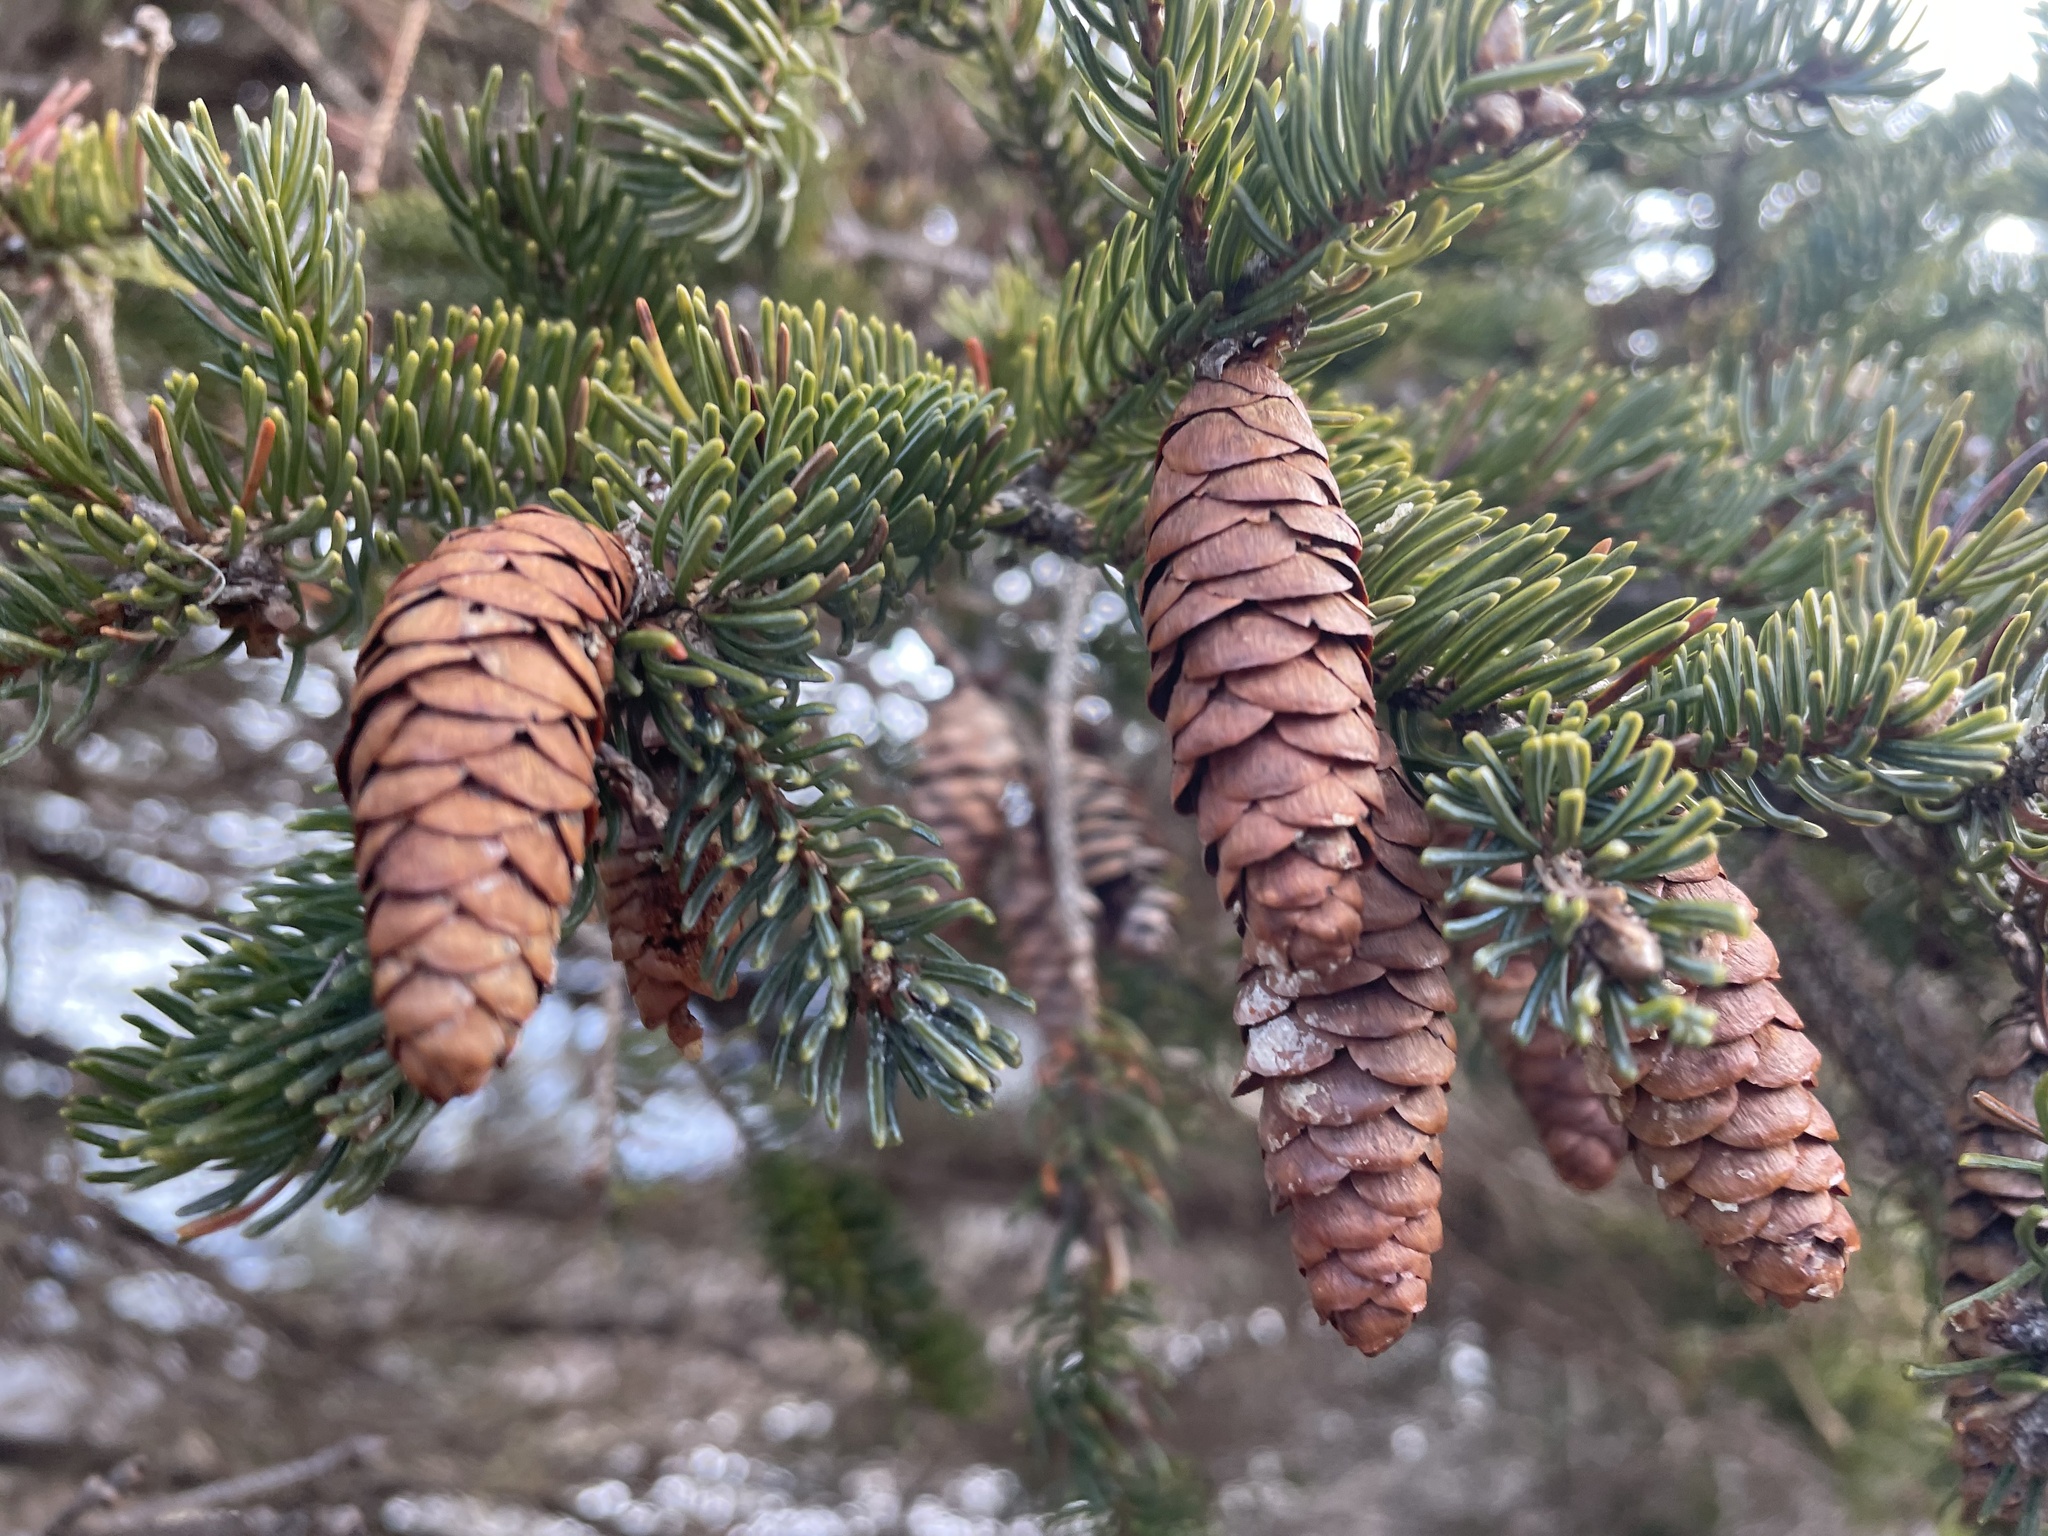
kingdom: Plantae
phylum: Tracheophyta
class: Pinopsida
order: Pinales
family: Pinaceae
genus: Picea
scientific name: Picea glauca
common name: White spruce
